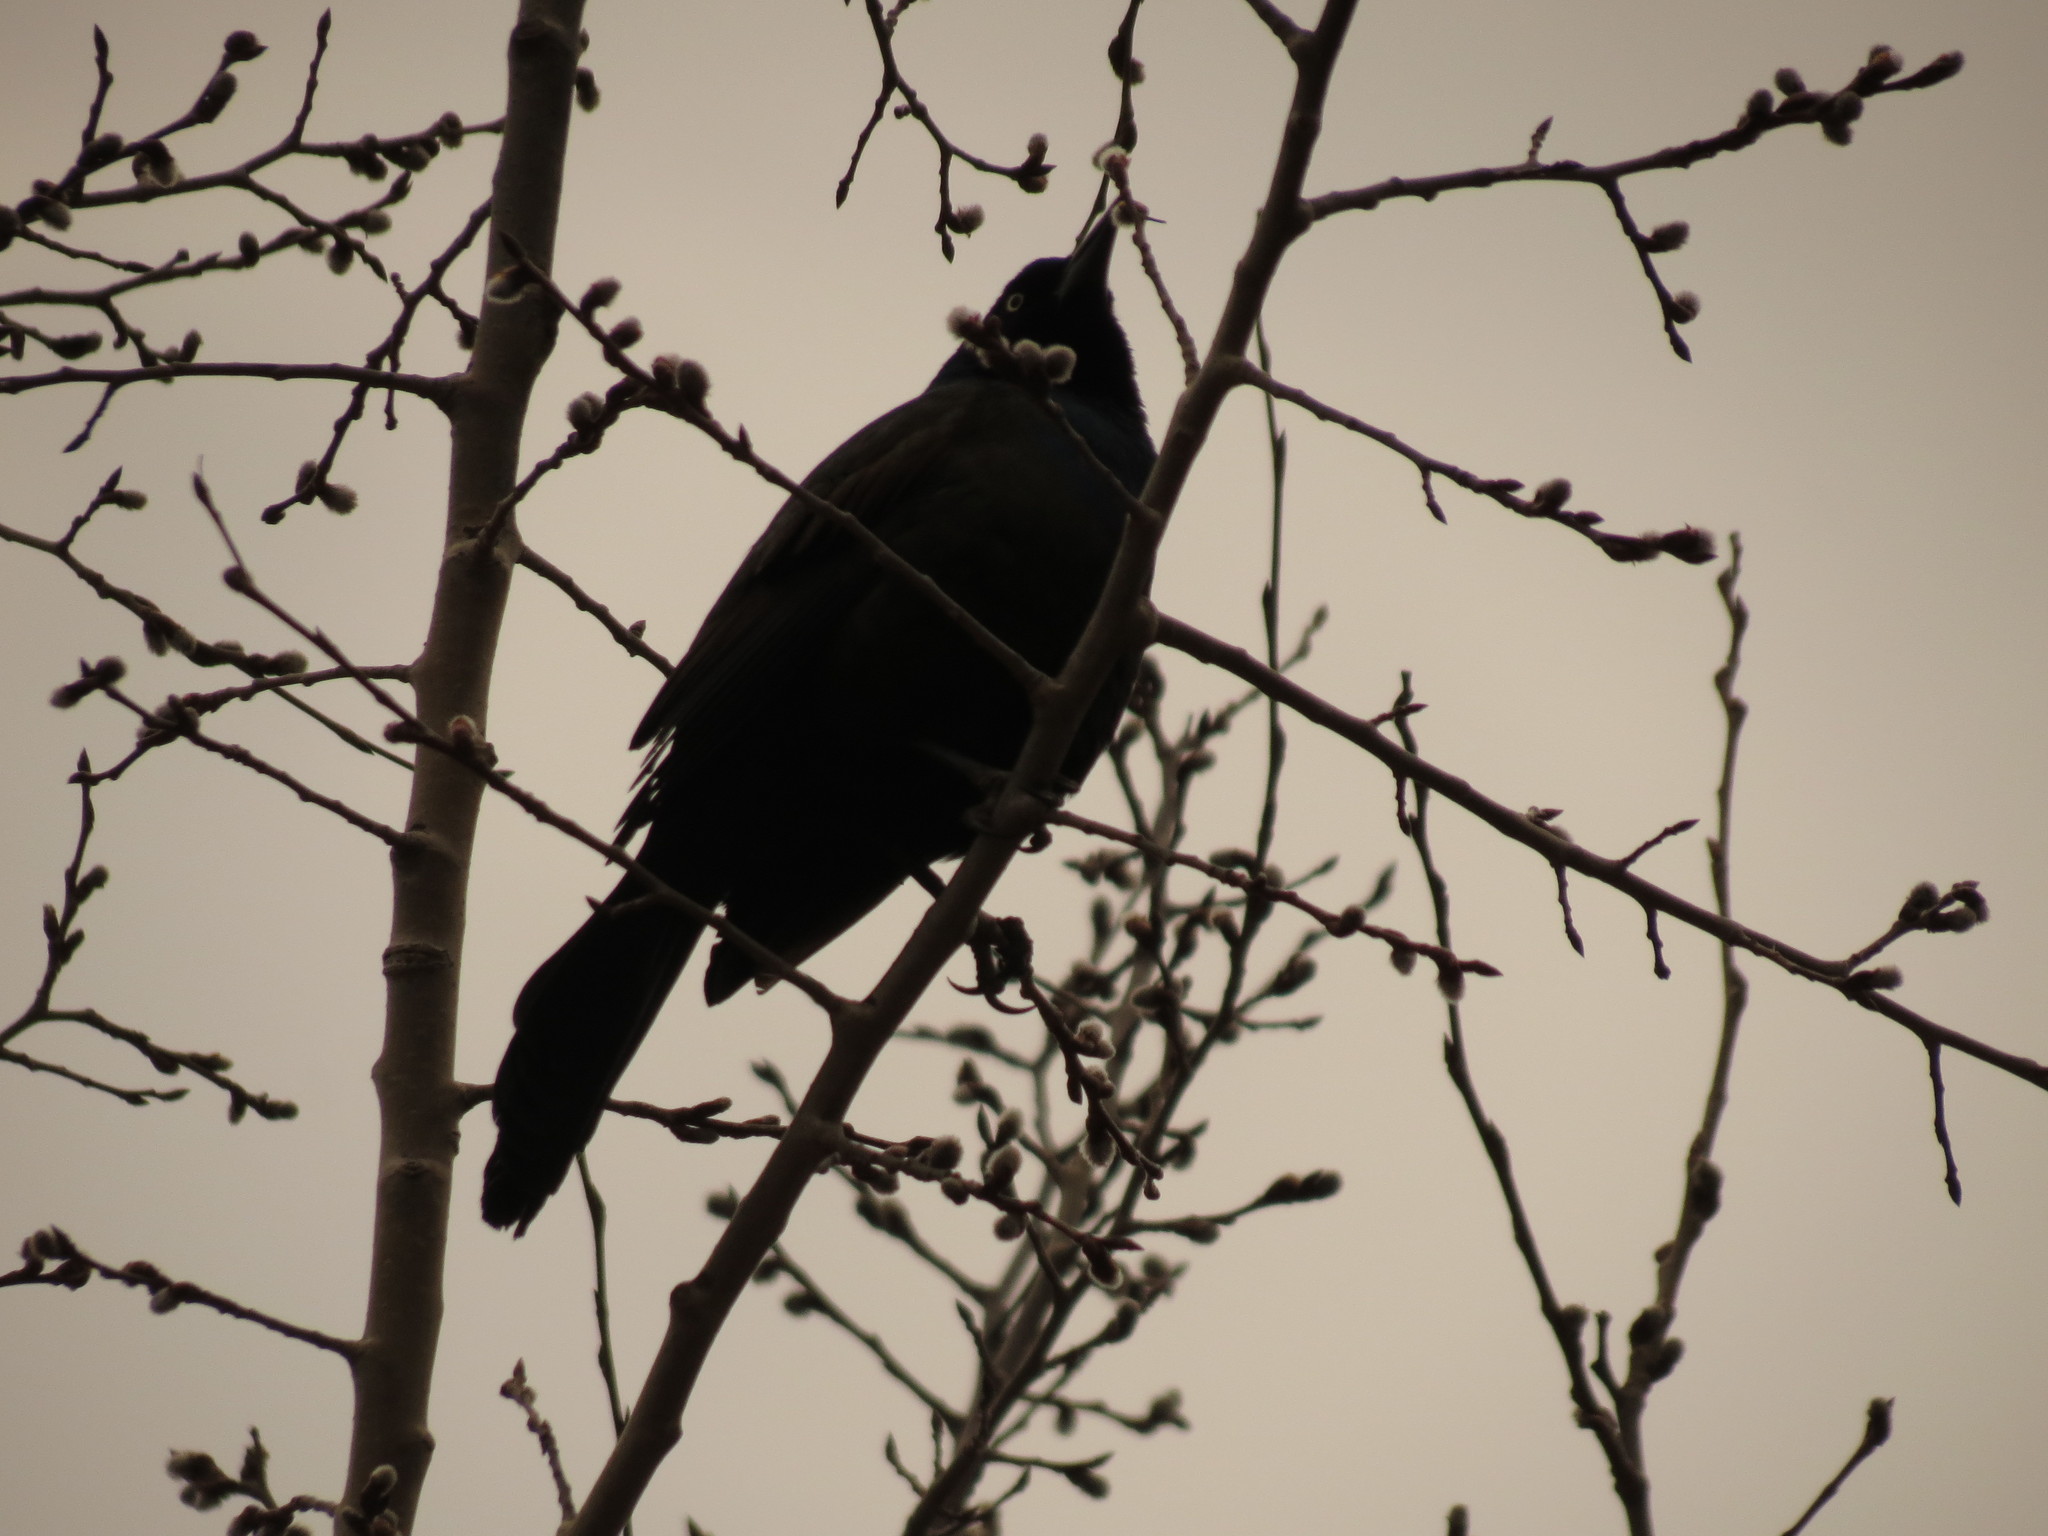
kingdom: Animalia
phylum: Chordata
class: Aves
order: Passeriformes
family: Icteridae
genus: Quiscalus
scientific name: Quiscalus quiscula
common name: Common grackle
